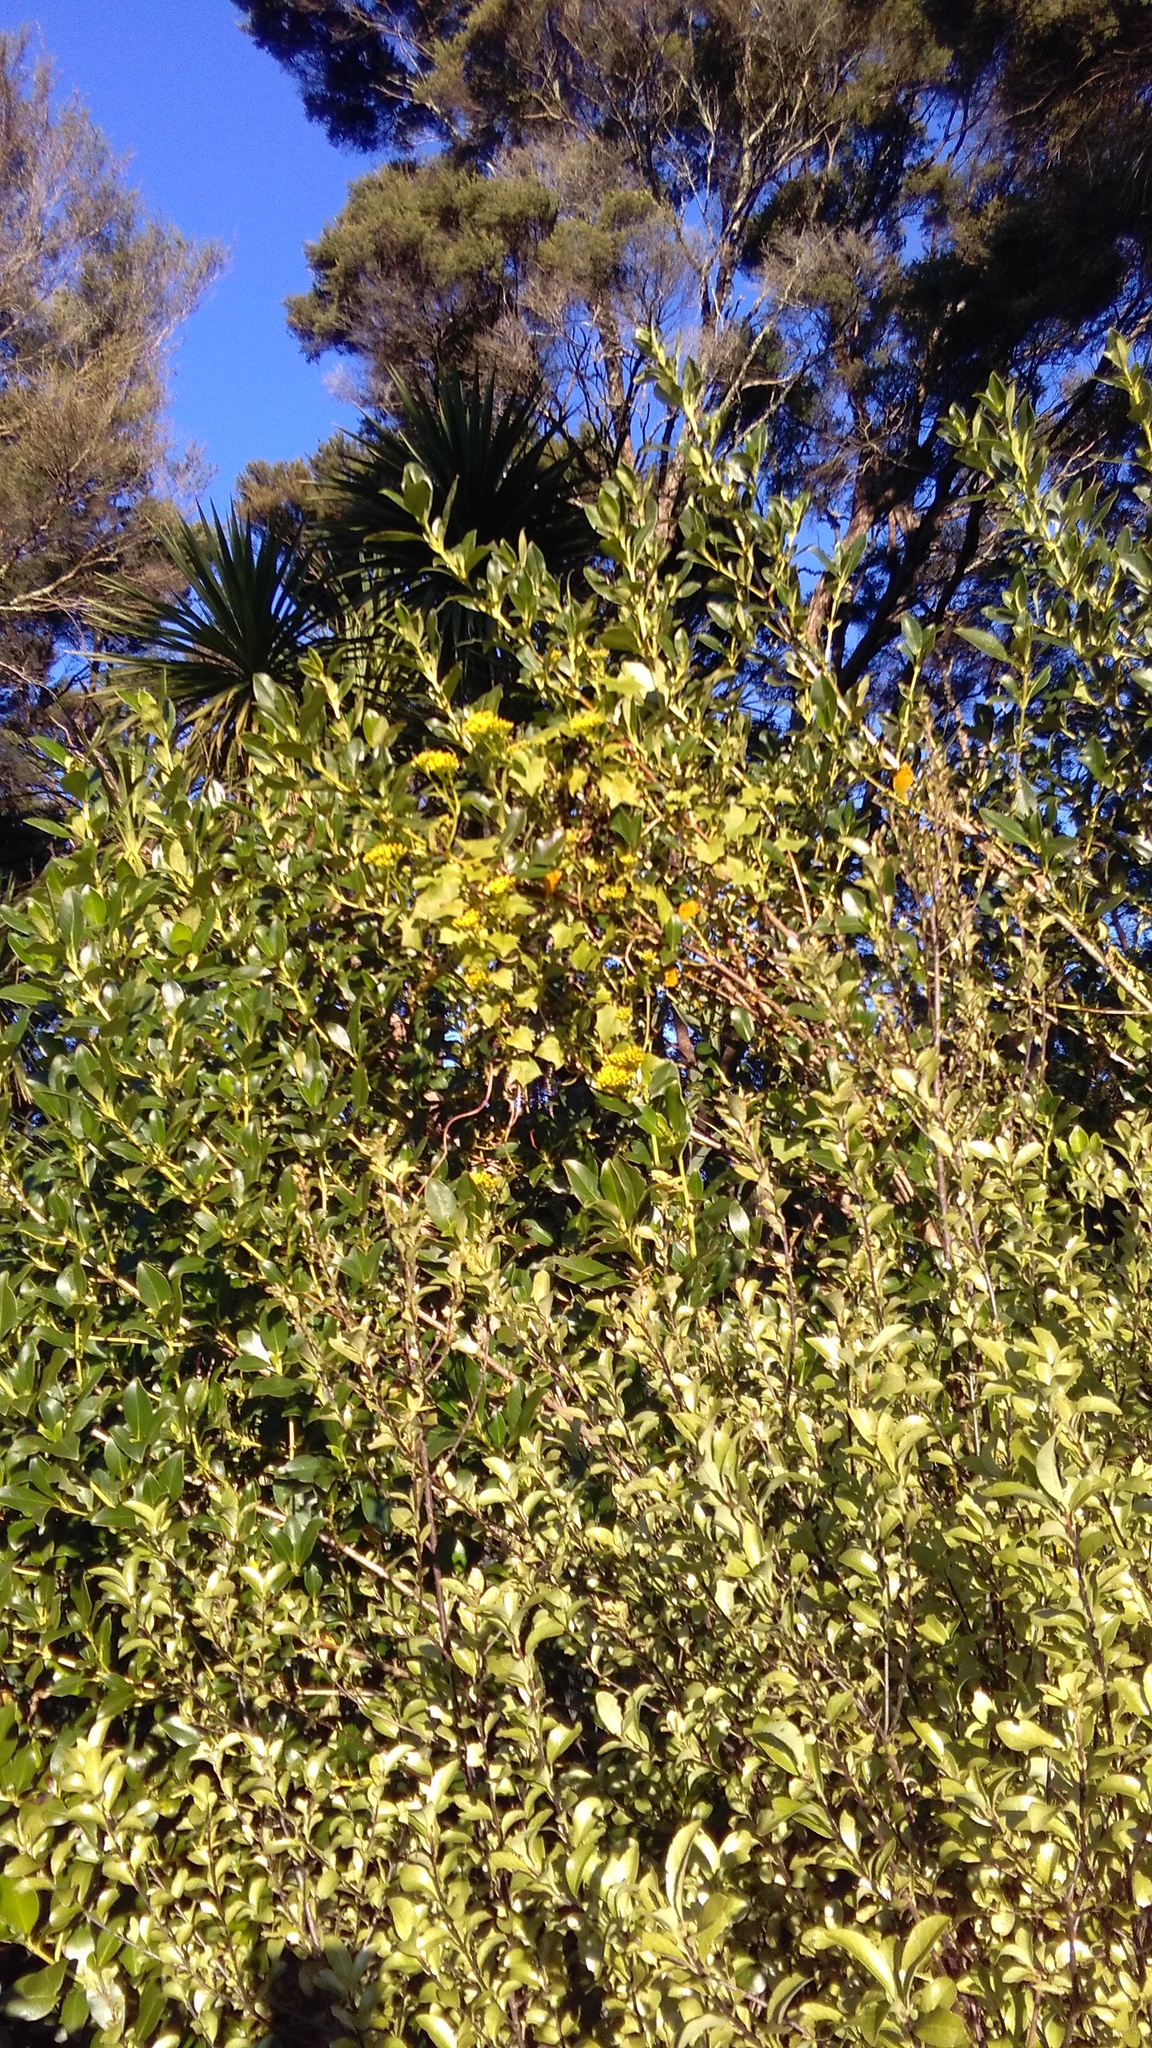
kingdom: Plantae
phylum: Tracheophyta
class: Magnoliopsida
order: Asterales
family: Asteraceae
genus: Delairea
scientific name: Delairea odorata
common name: Cape-ivy
